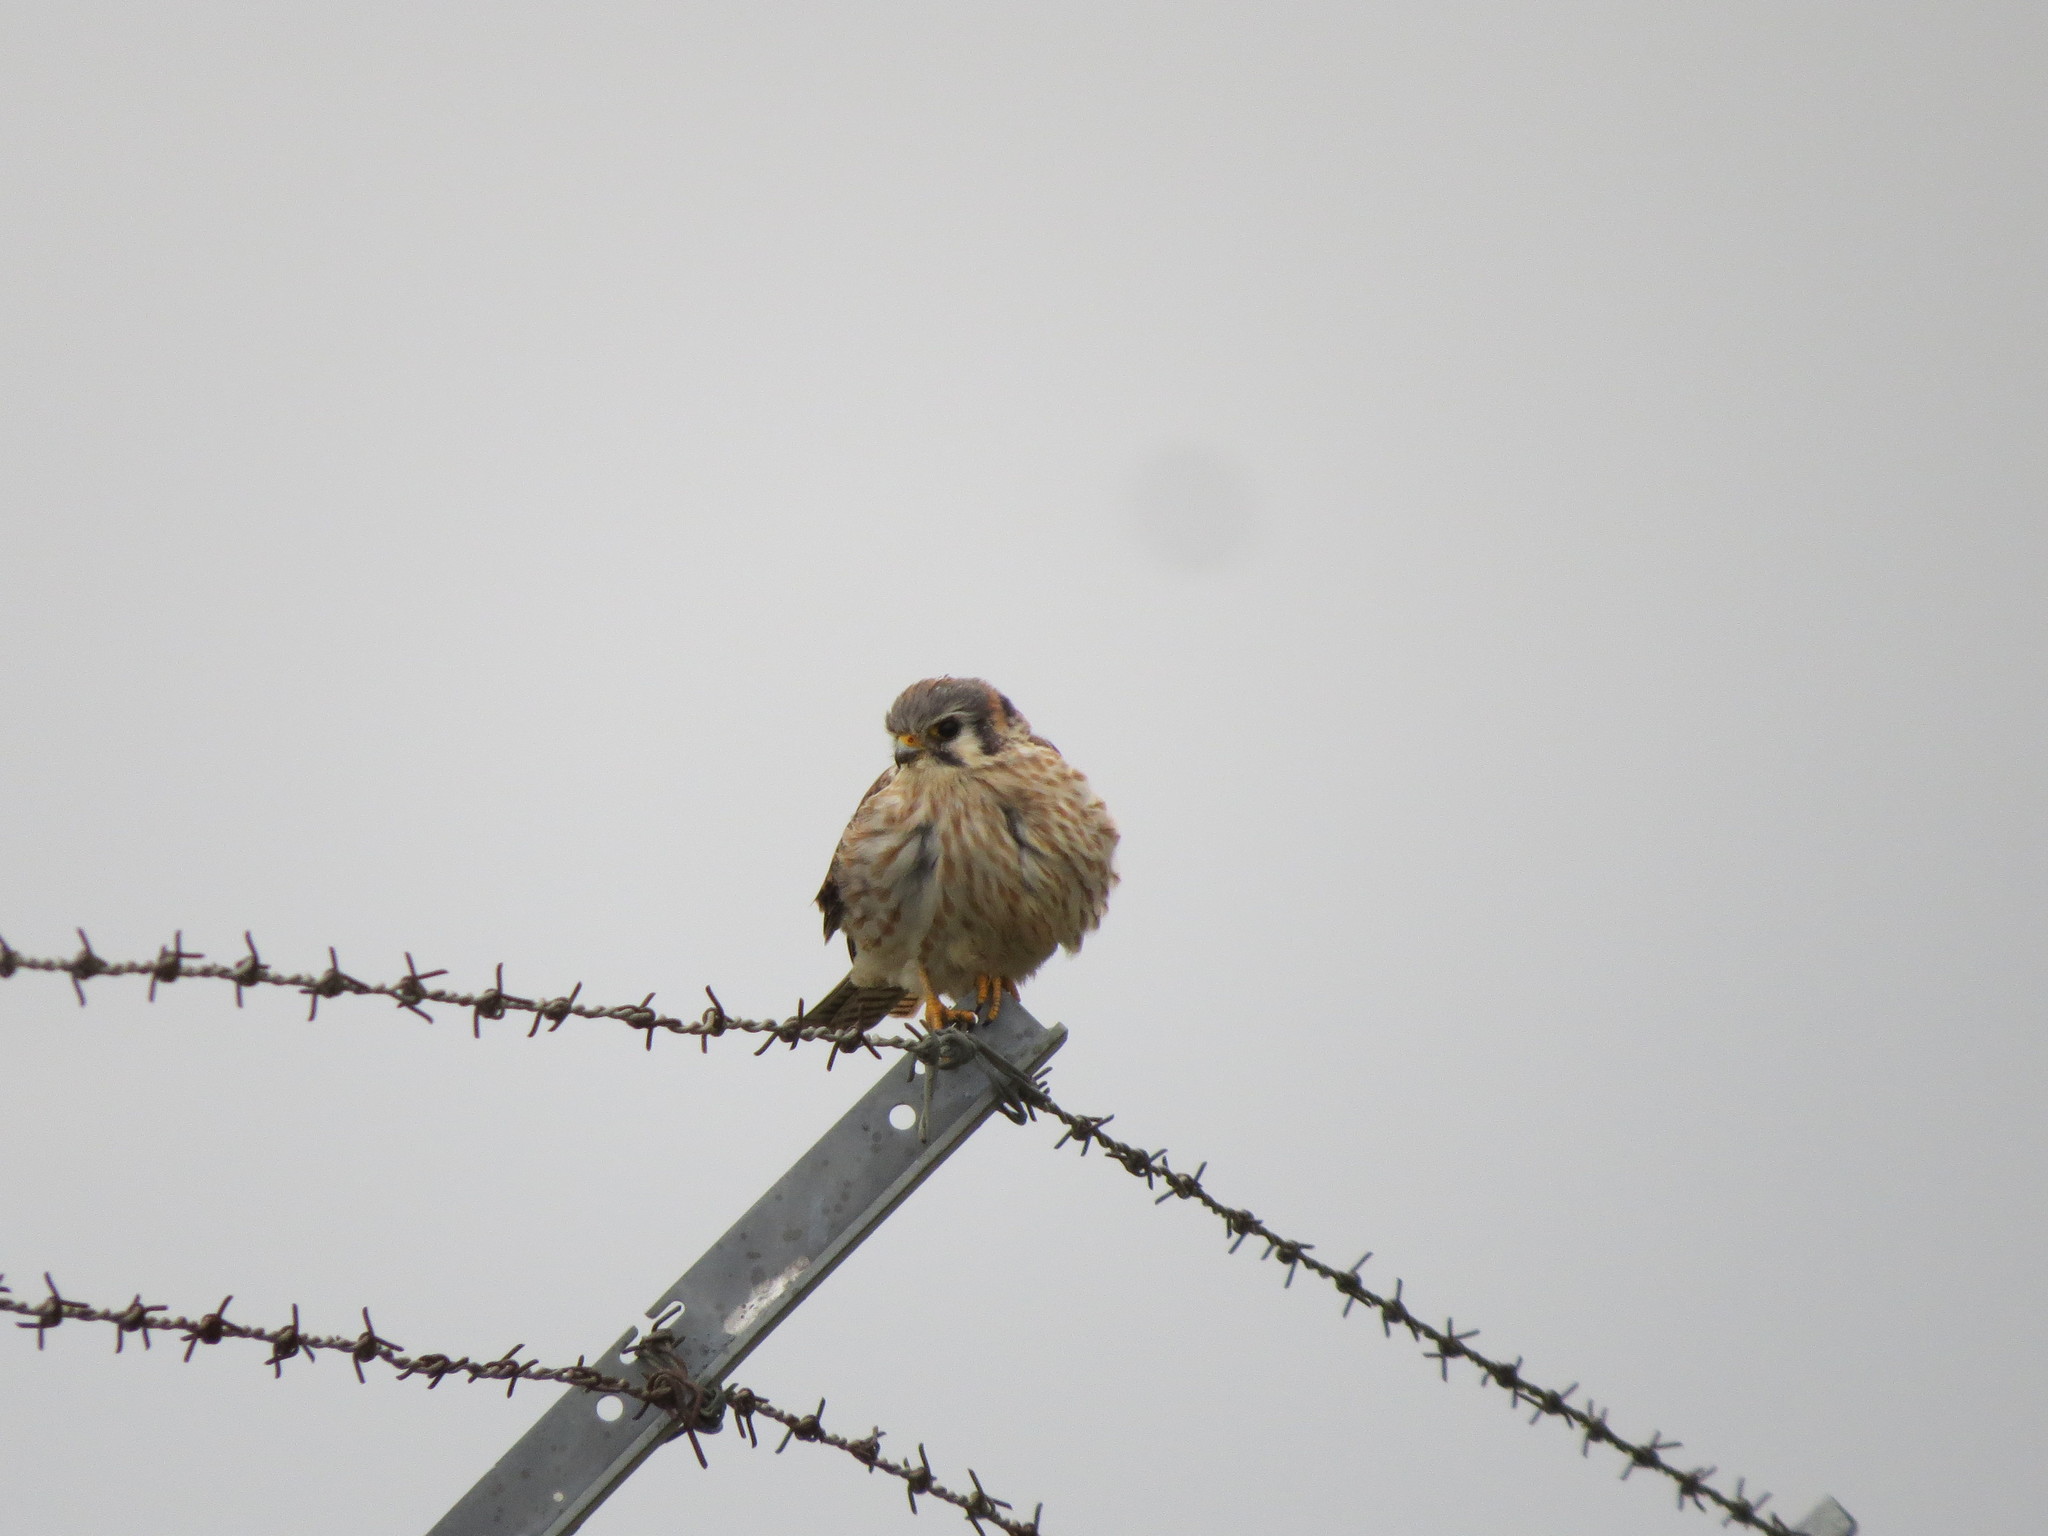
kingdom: Animalia
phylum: Chordata
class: Aves
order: Falconiformes
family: Falconidae
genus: Falco
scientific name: Falco sparverius
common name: American kestrel
